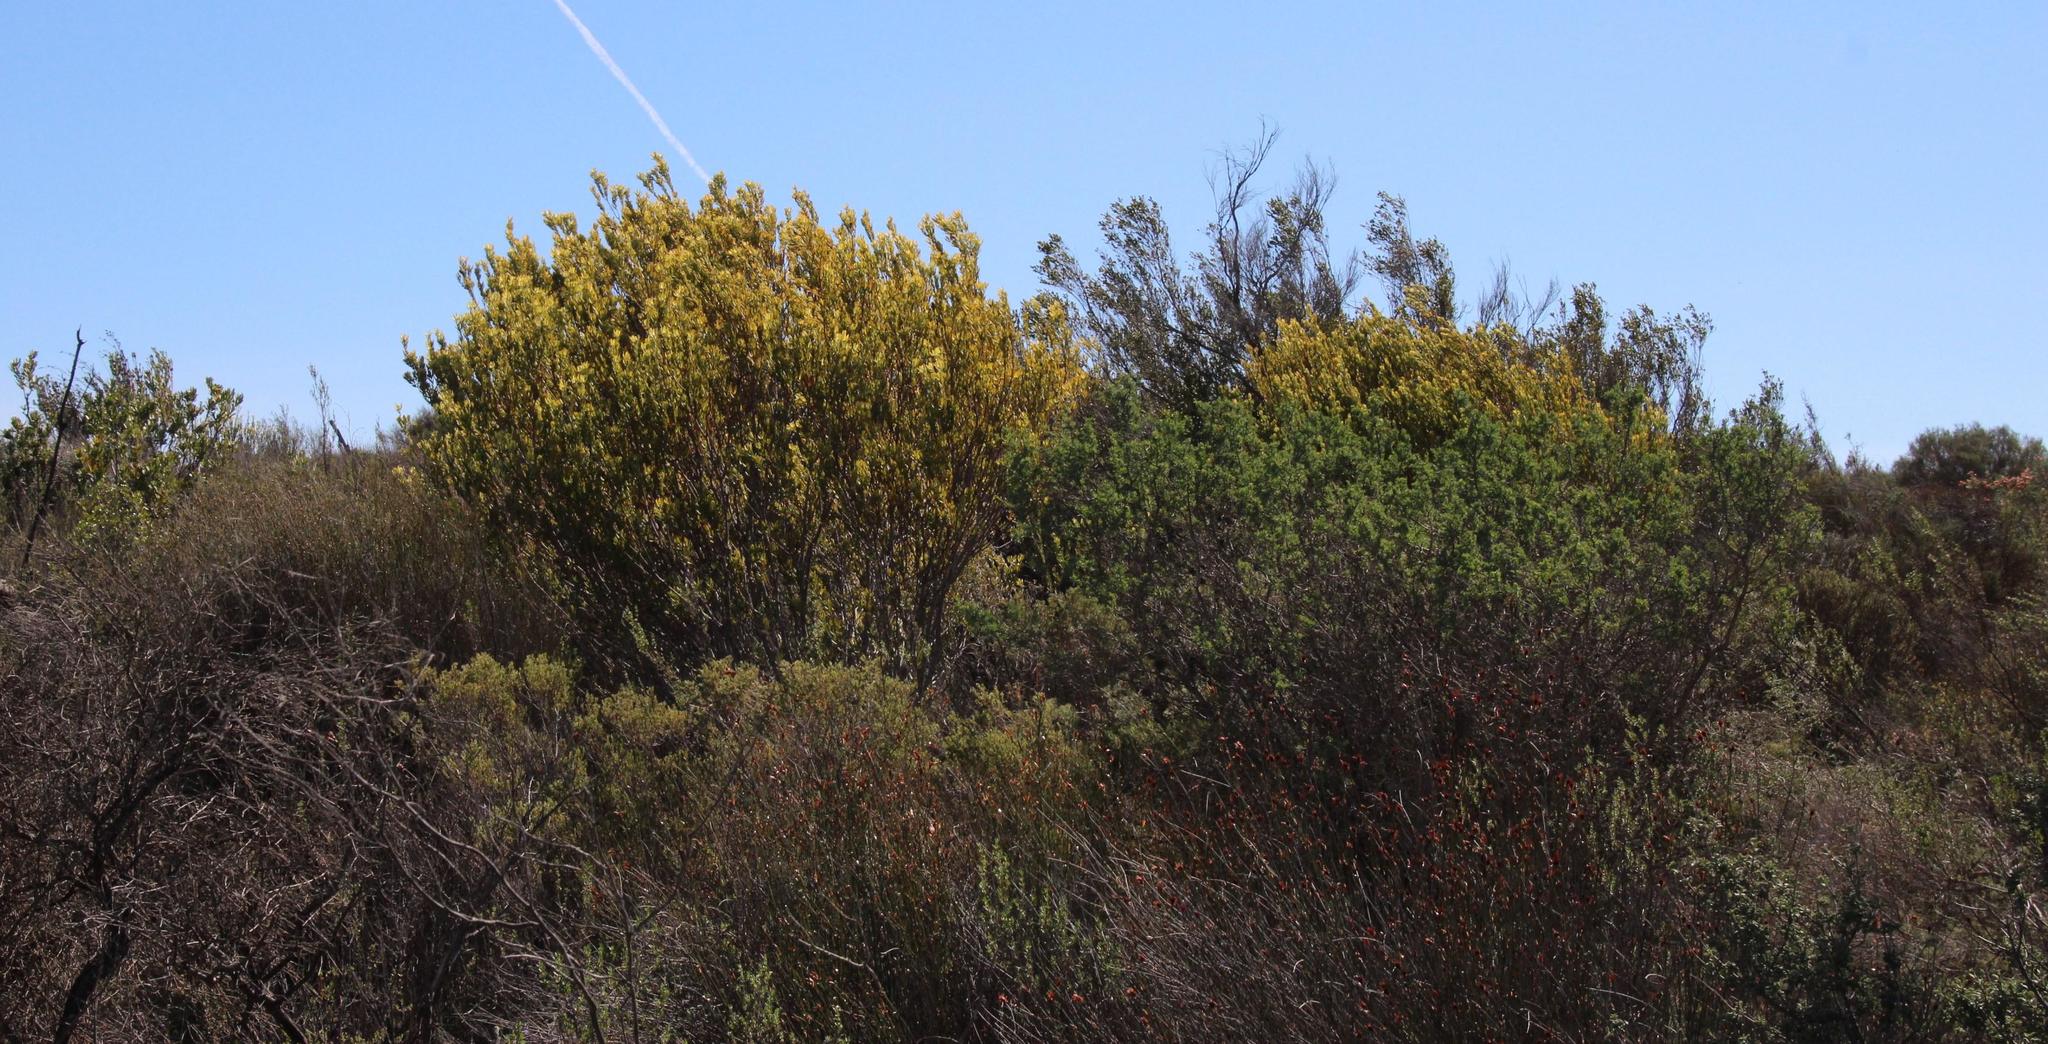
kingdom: Plantae
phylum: Tracheophyta
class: Magnoliopsida
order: Proteales
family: Proteaceae
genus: Leucadendron
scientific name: Leucadendron procerum
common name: Ivory conebush
